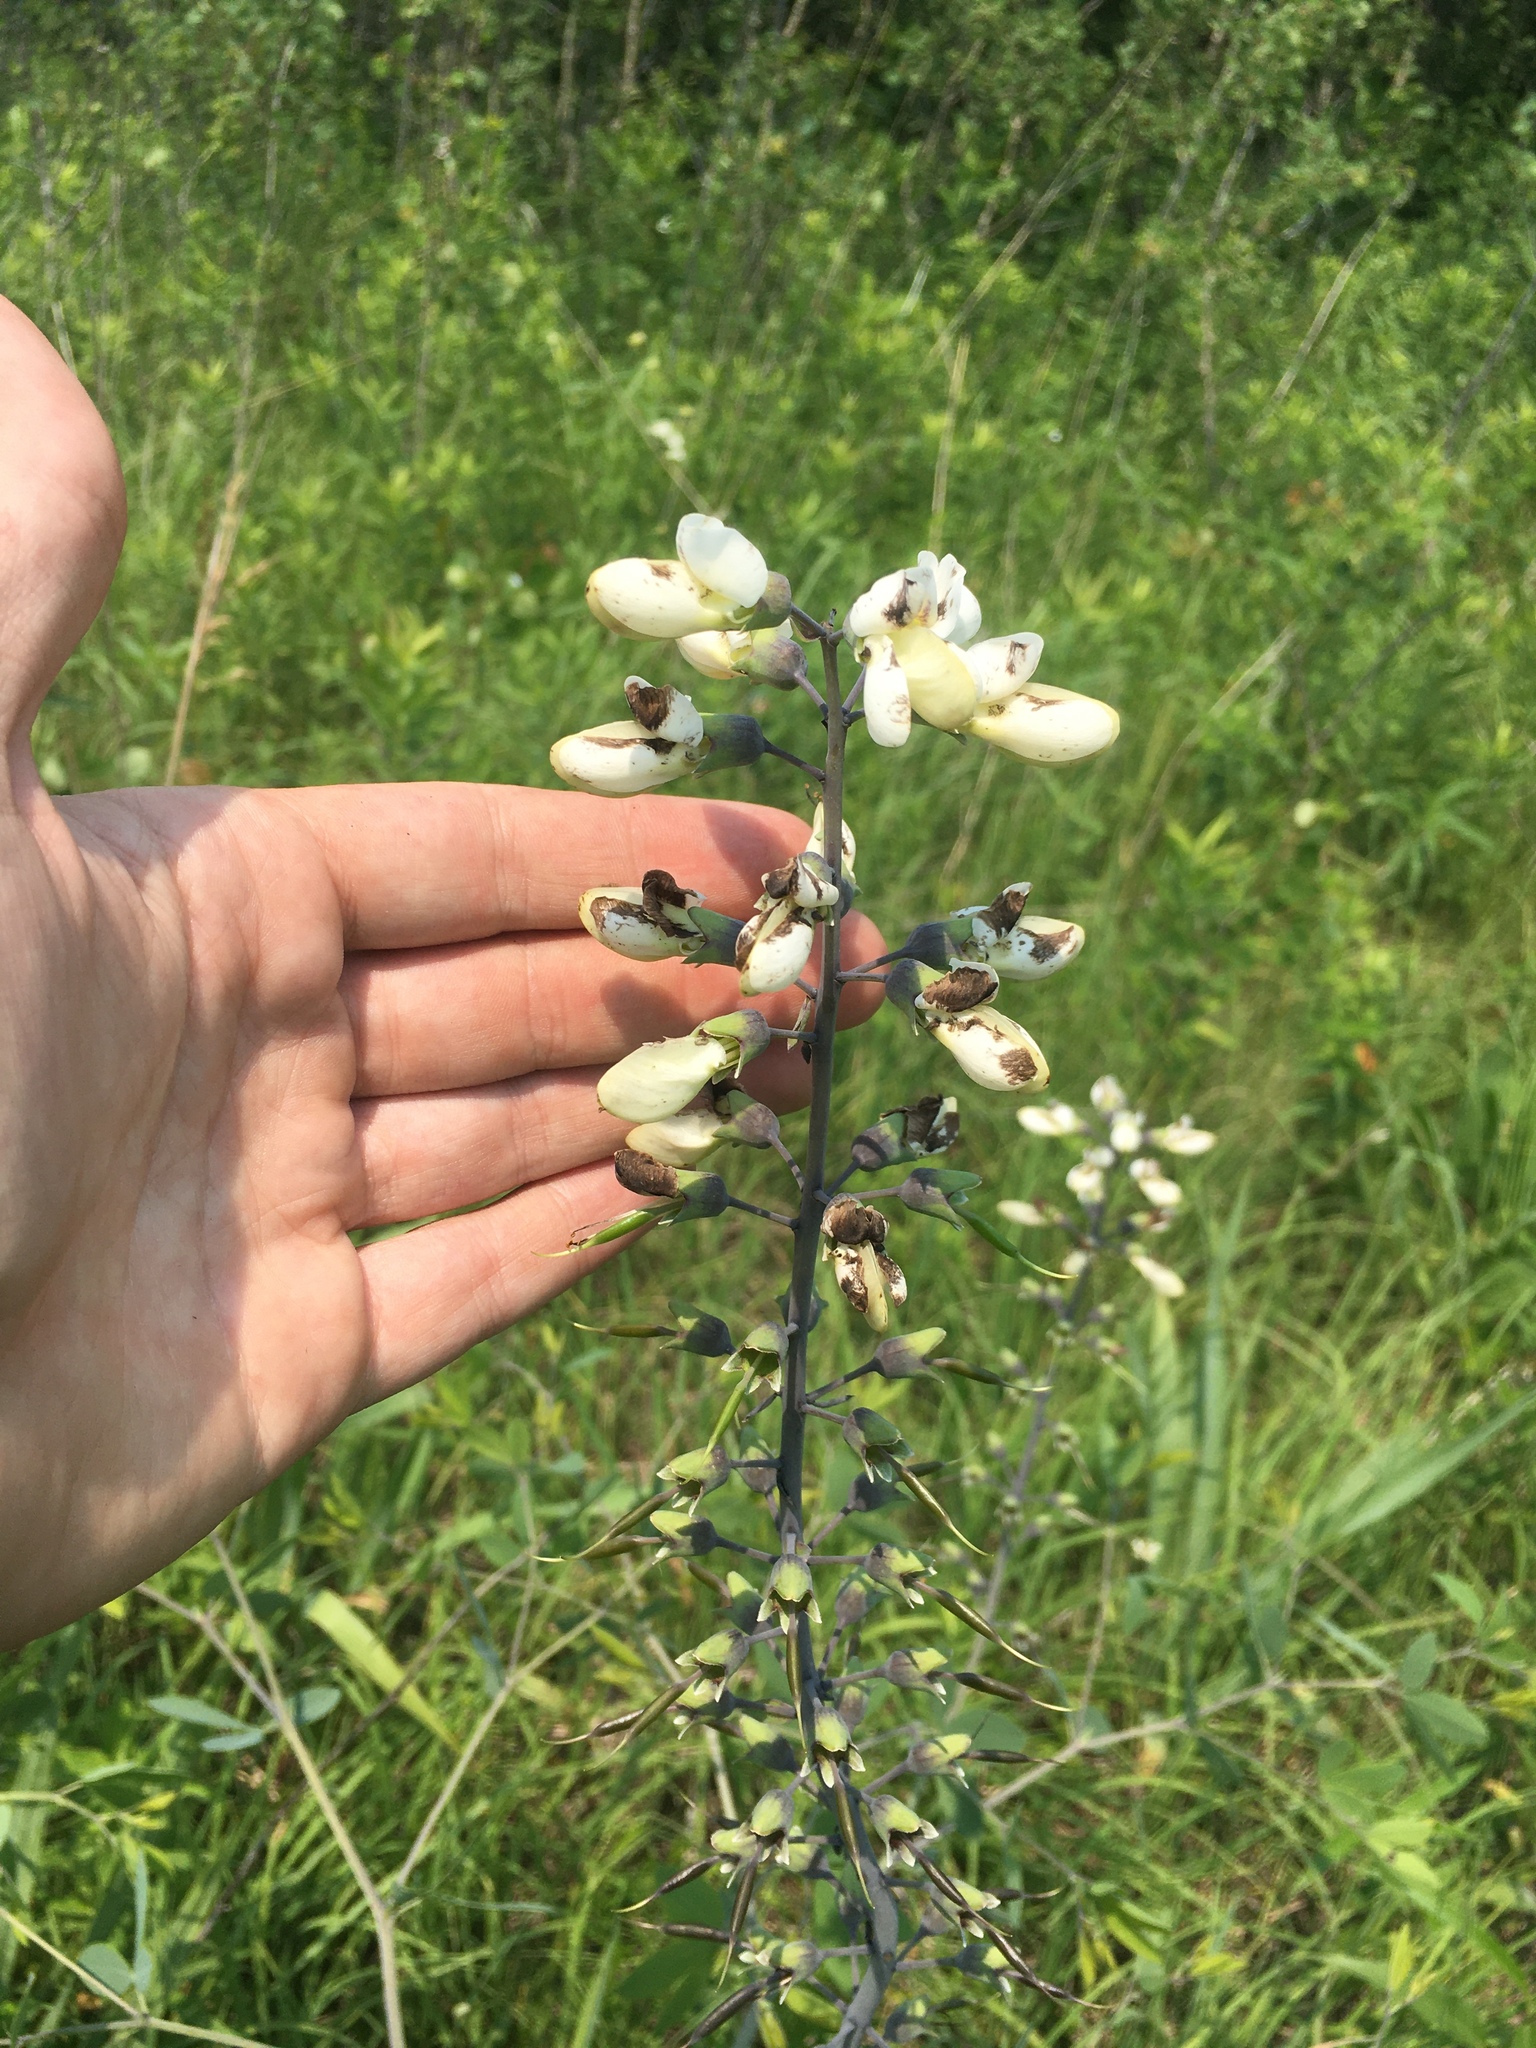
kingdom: Plantae
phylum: Tracheophyta
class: Magnoliopsida
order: Fabales
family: Fabaceae
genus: Baptisia
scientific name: Baptisia alba
